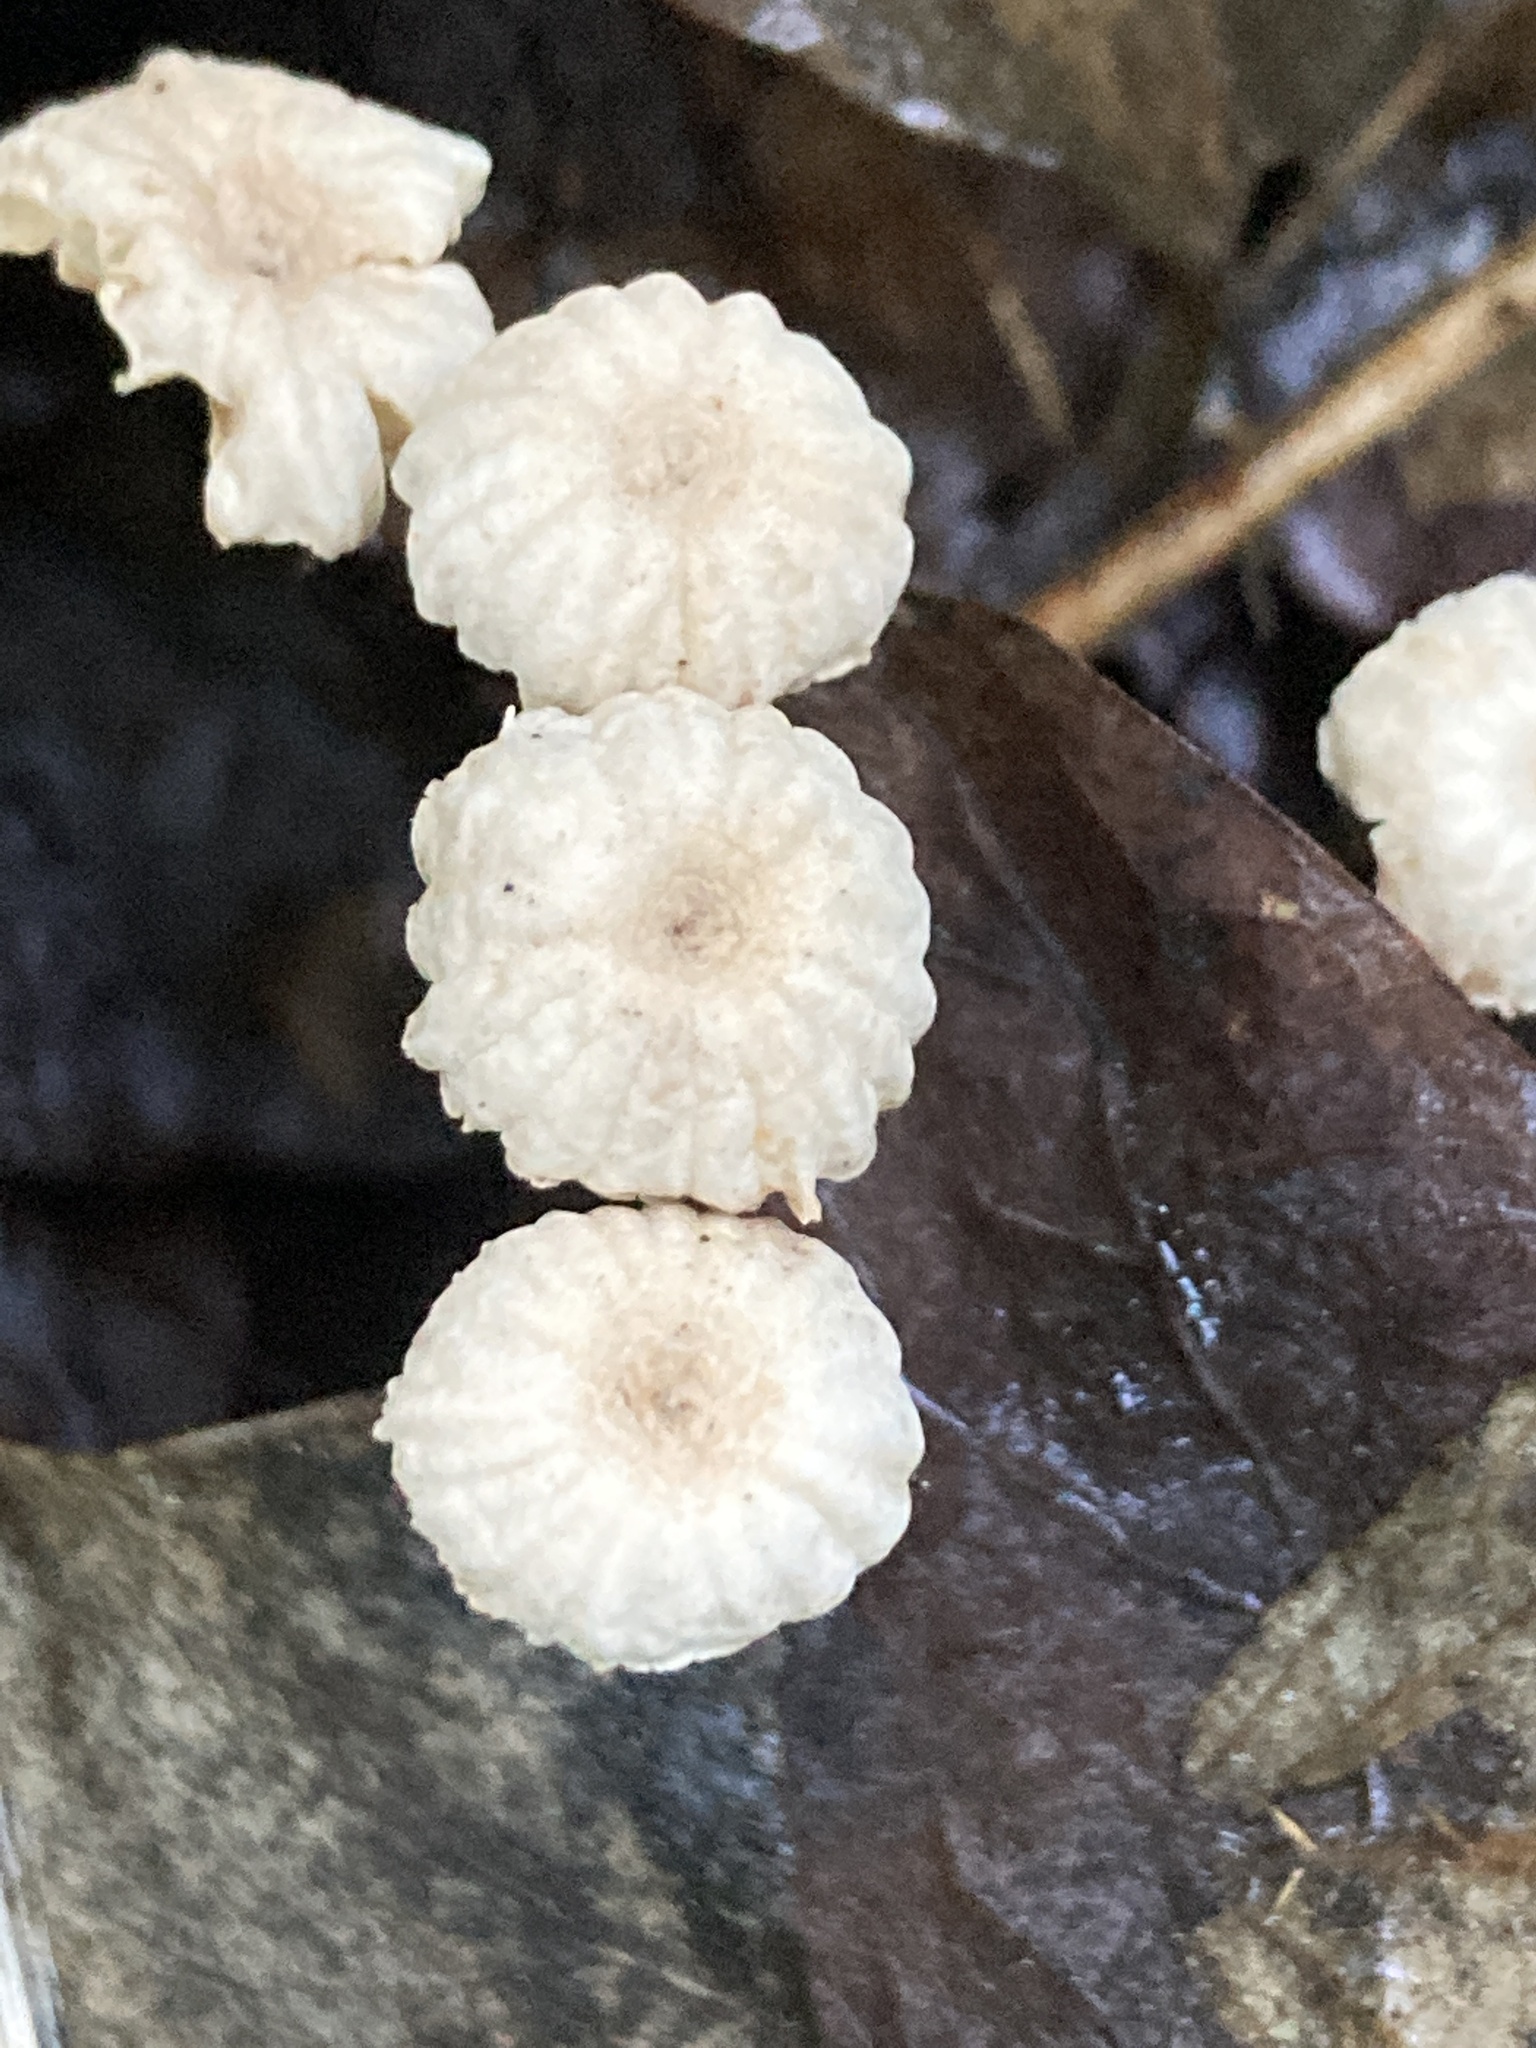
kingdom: Fungi
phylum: Basidiomycota
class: Agaricomycetes
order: Agaricales
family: Marasmiaceae
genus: Marasmius
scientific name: Marasmius rotula
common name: Collared parachute
